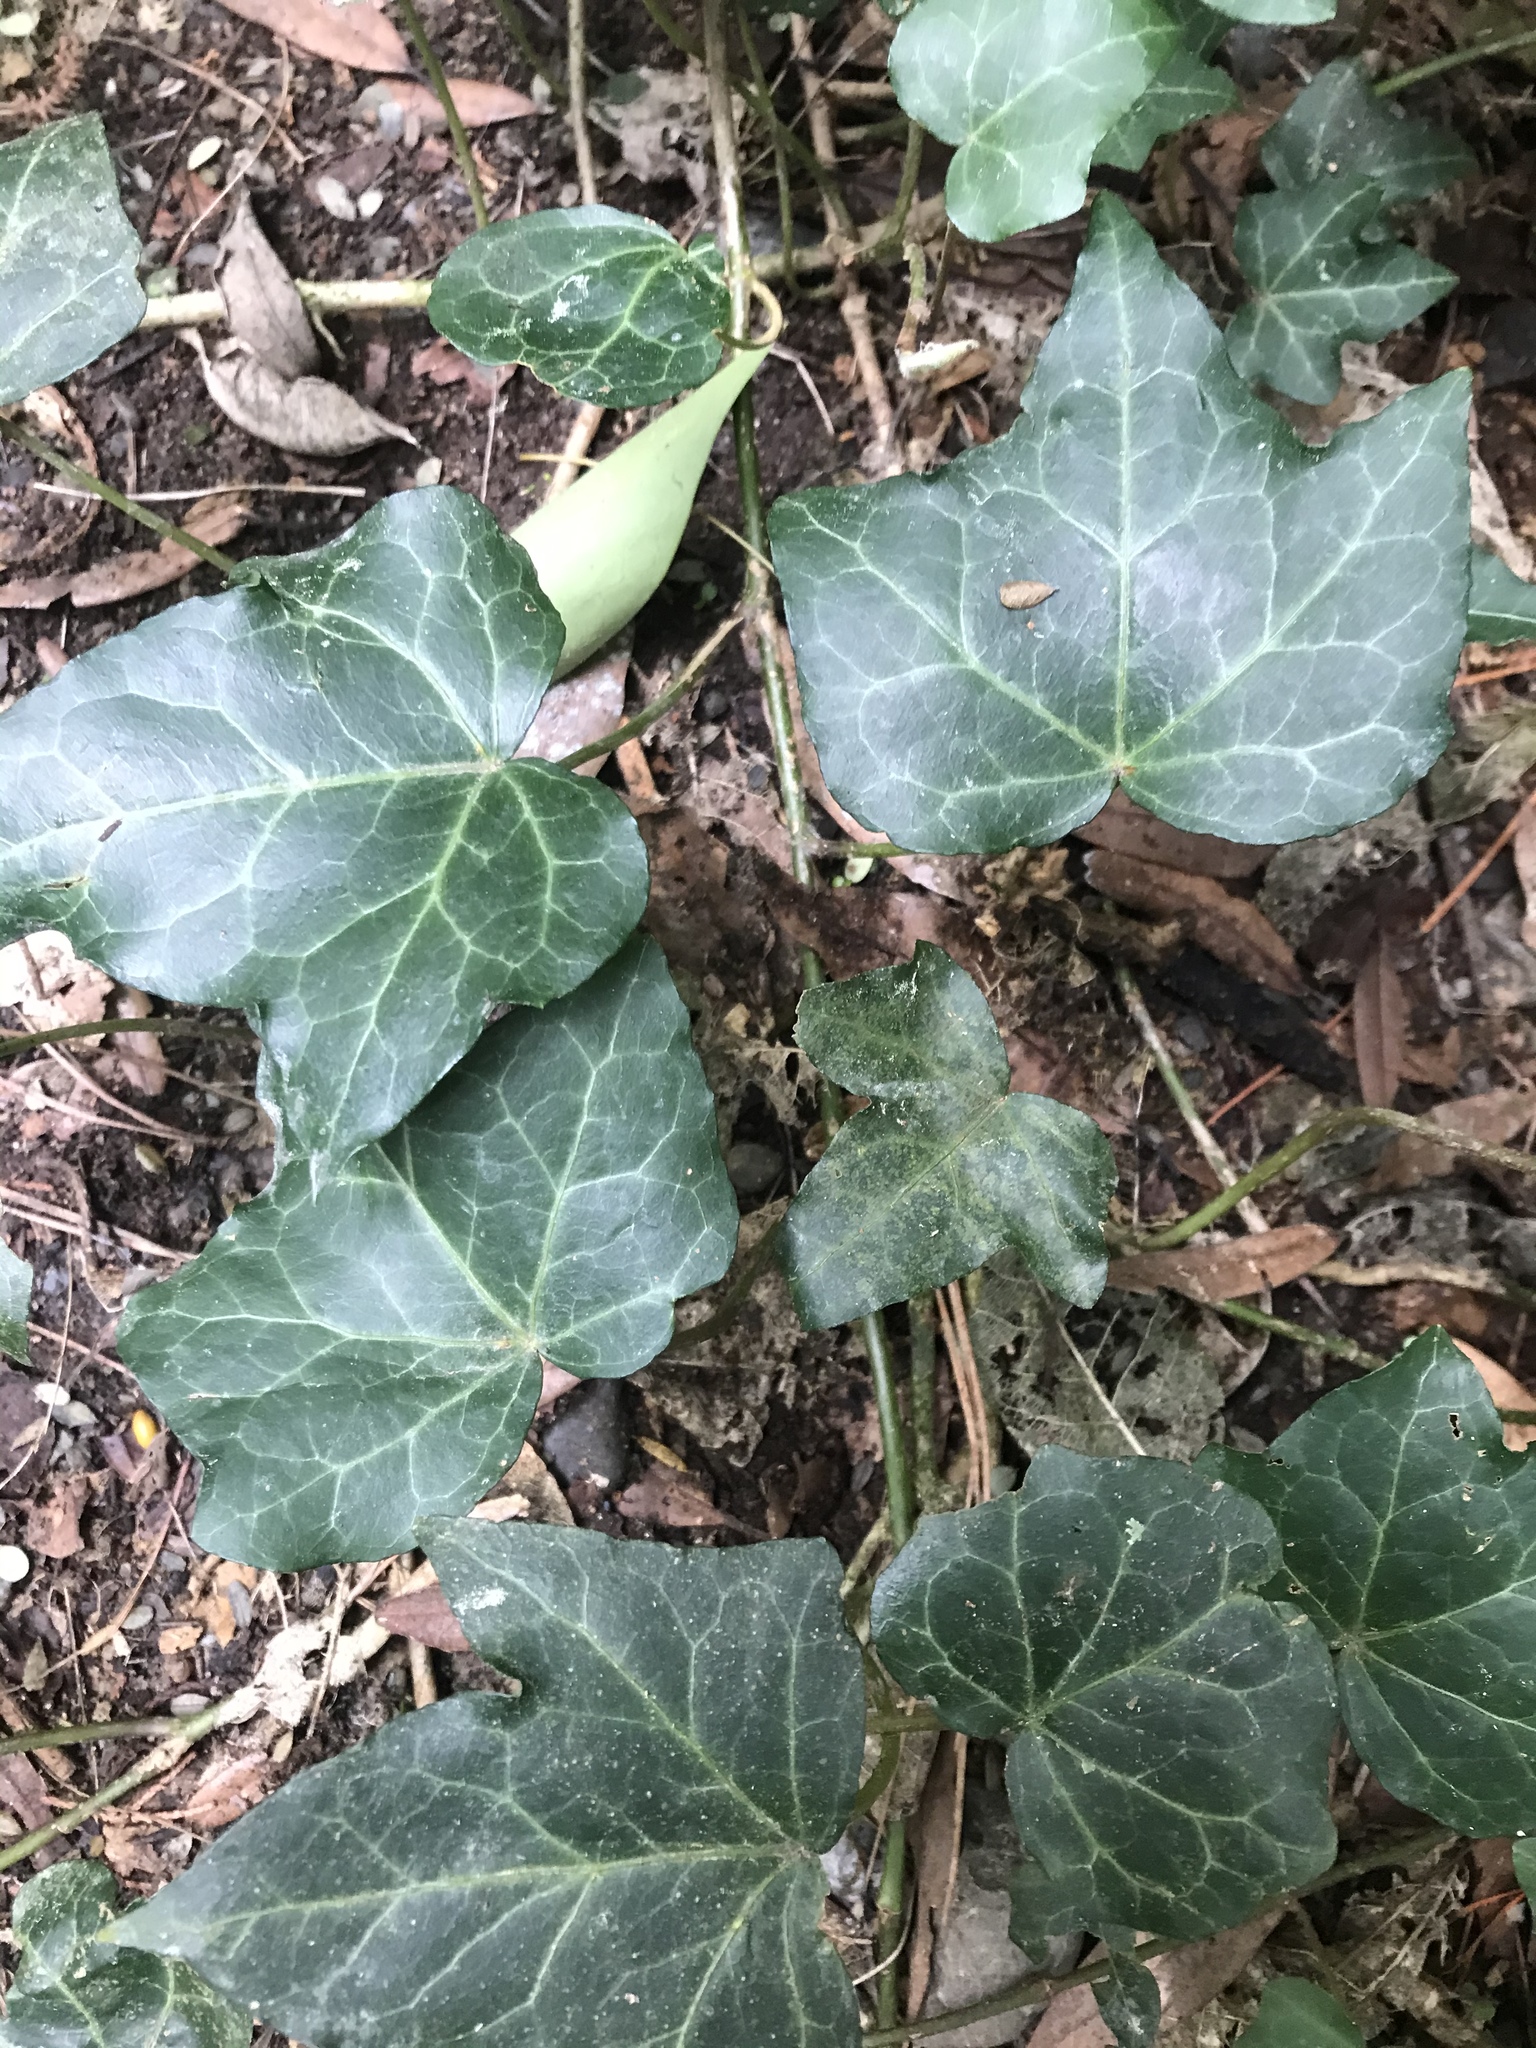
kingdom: Plantae
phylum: Tracheophyta
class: Magnoliopsida
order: Apiales
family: Araliaceae
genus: Hedera
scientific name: Hedera helix
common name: Ivy
